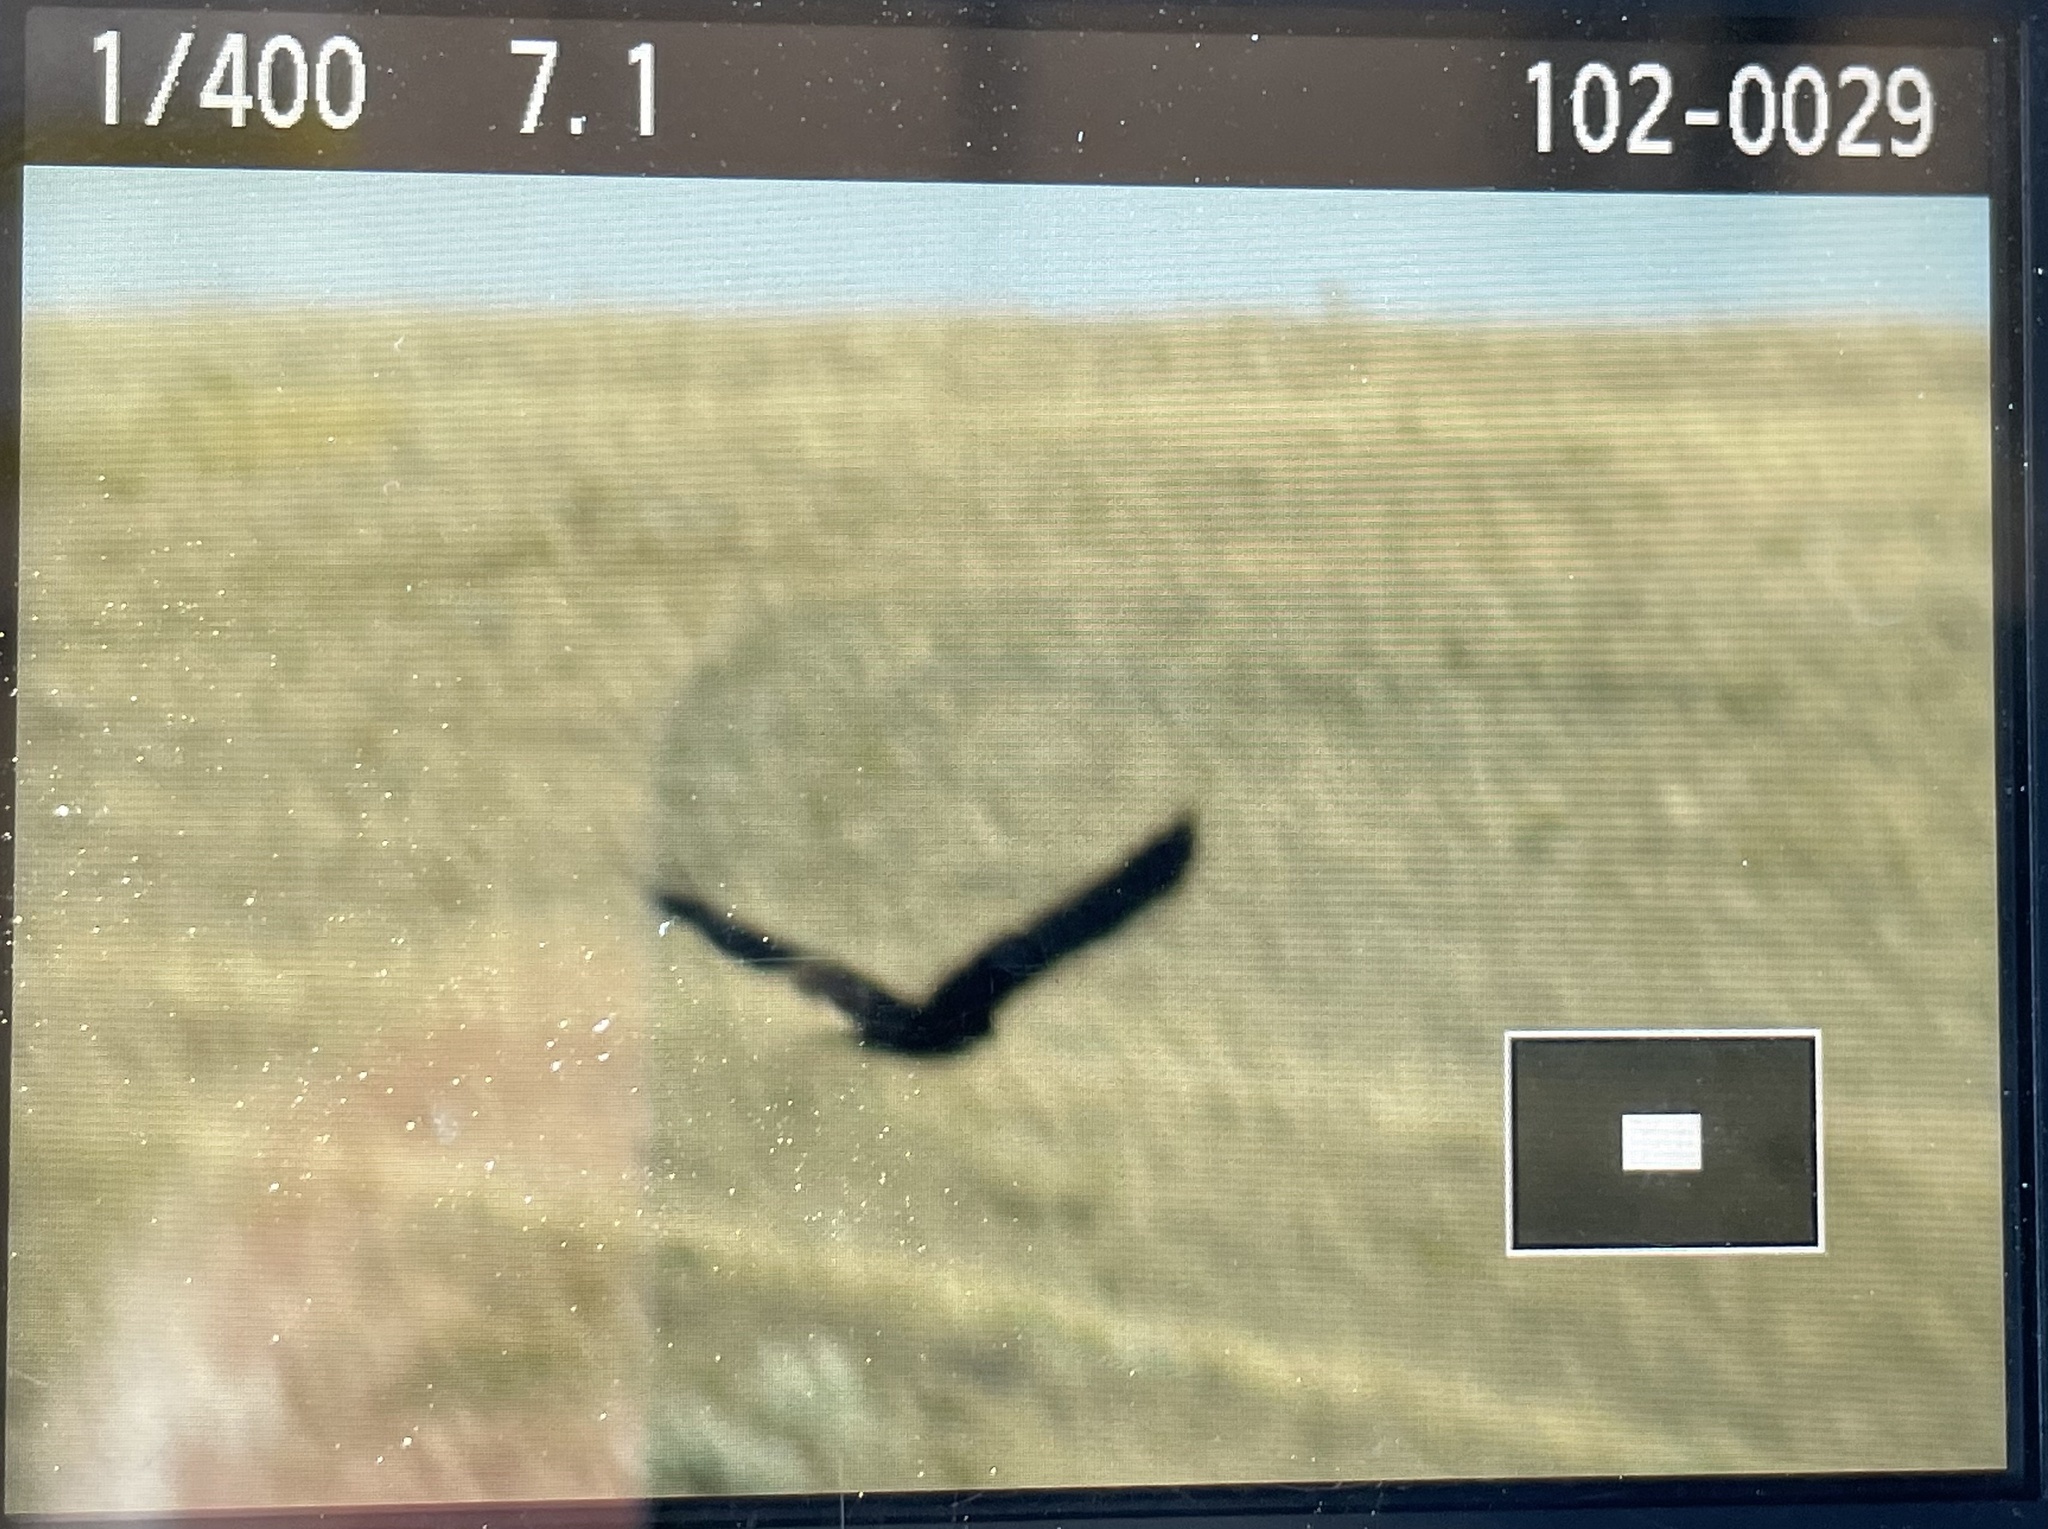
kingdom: Animalia
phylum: Chordata
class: Aves
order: Accipitriformes
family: Accipitridae
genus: Aquila
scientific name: Aquila chrysaetos
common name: Golden eagle
